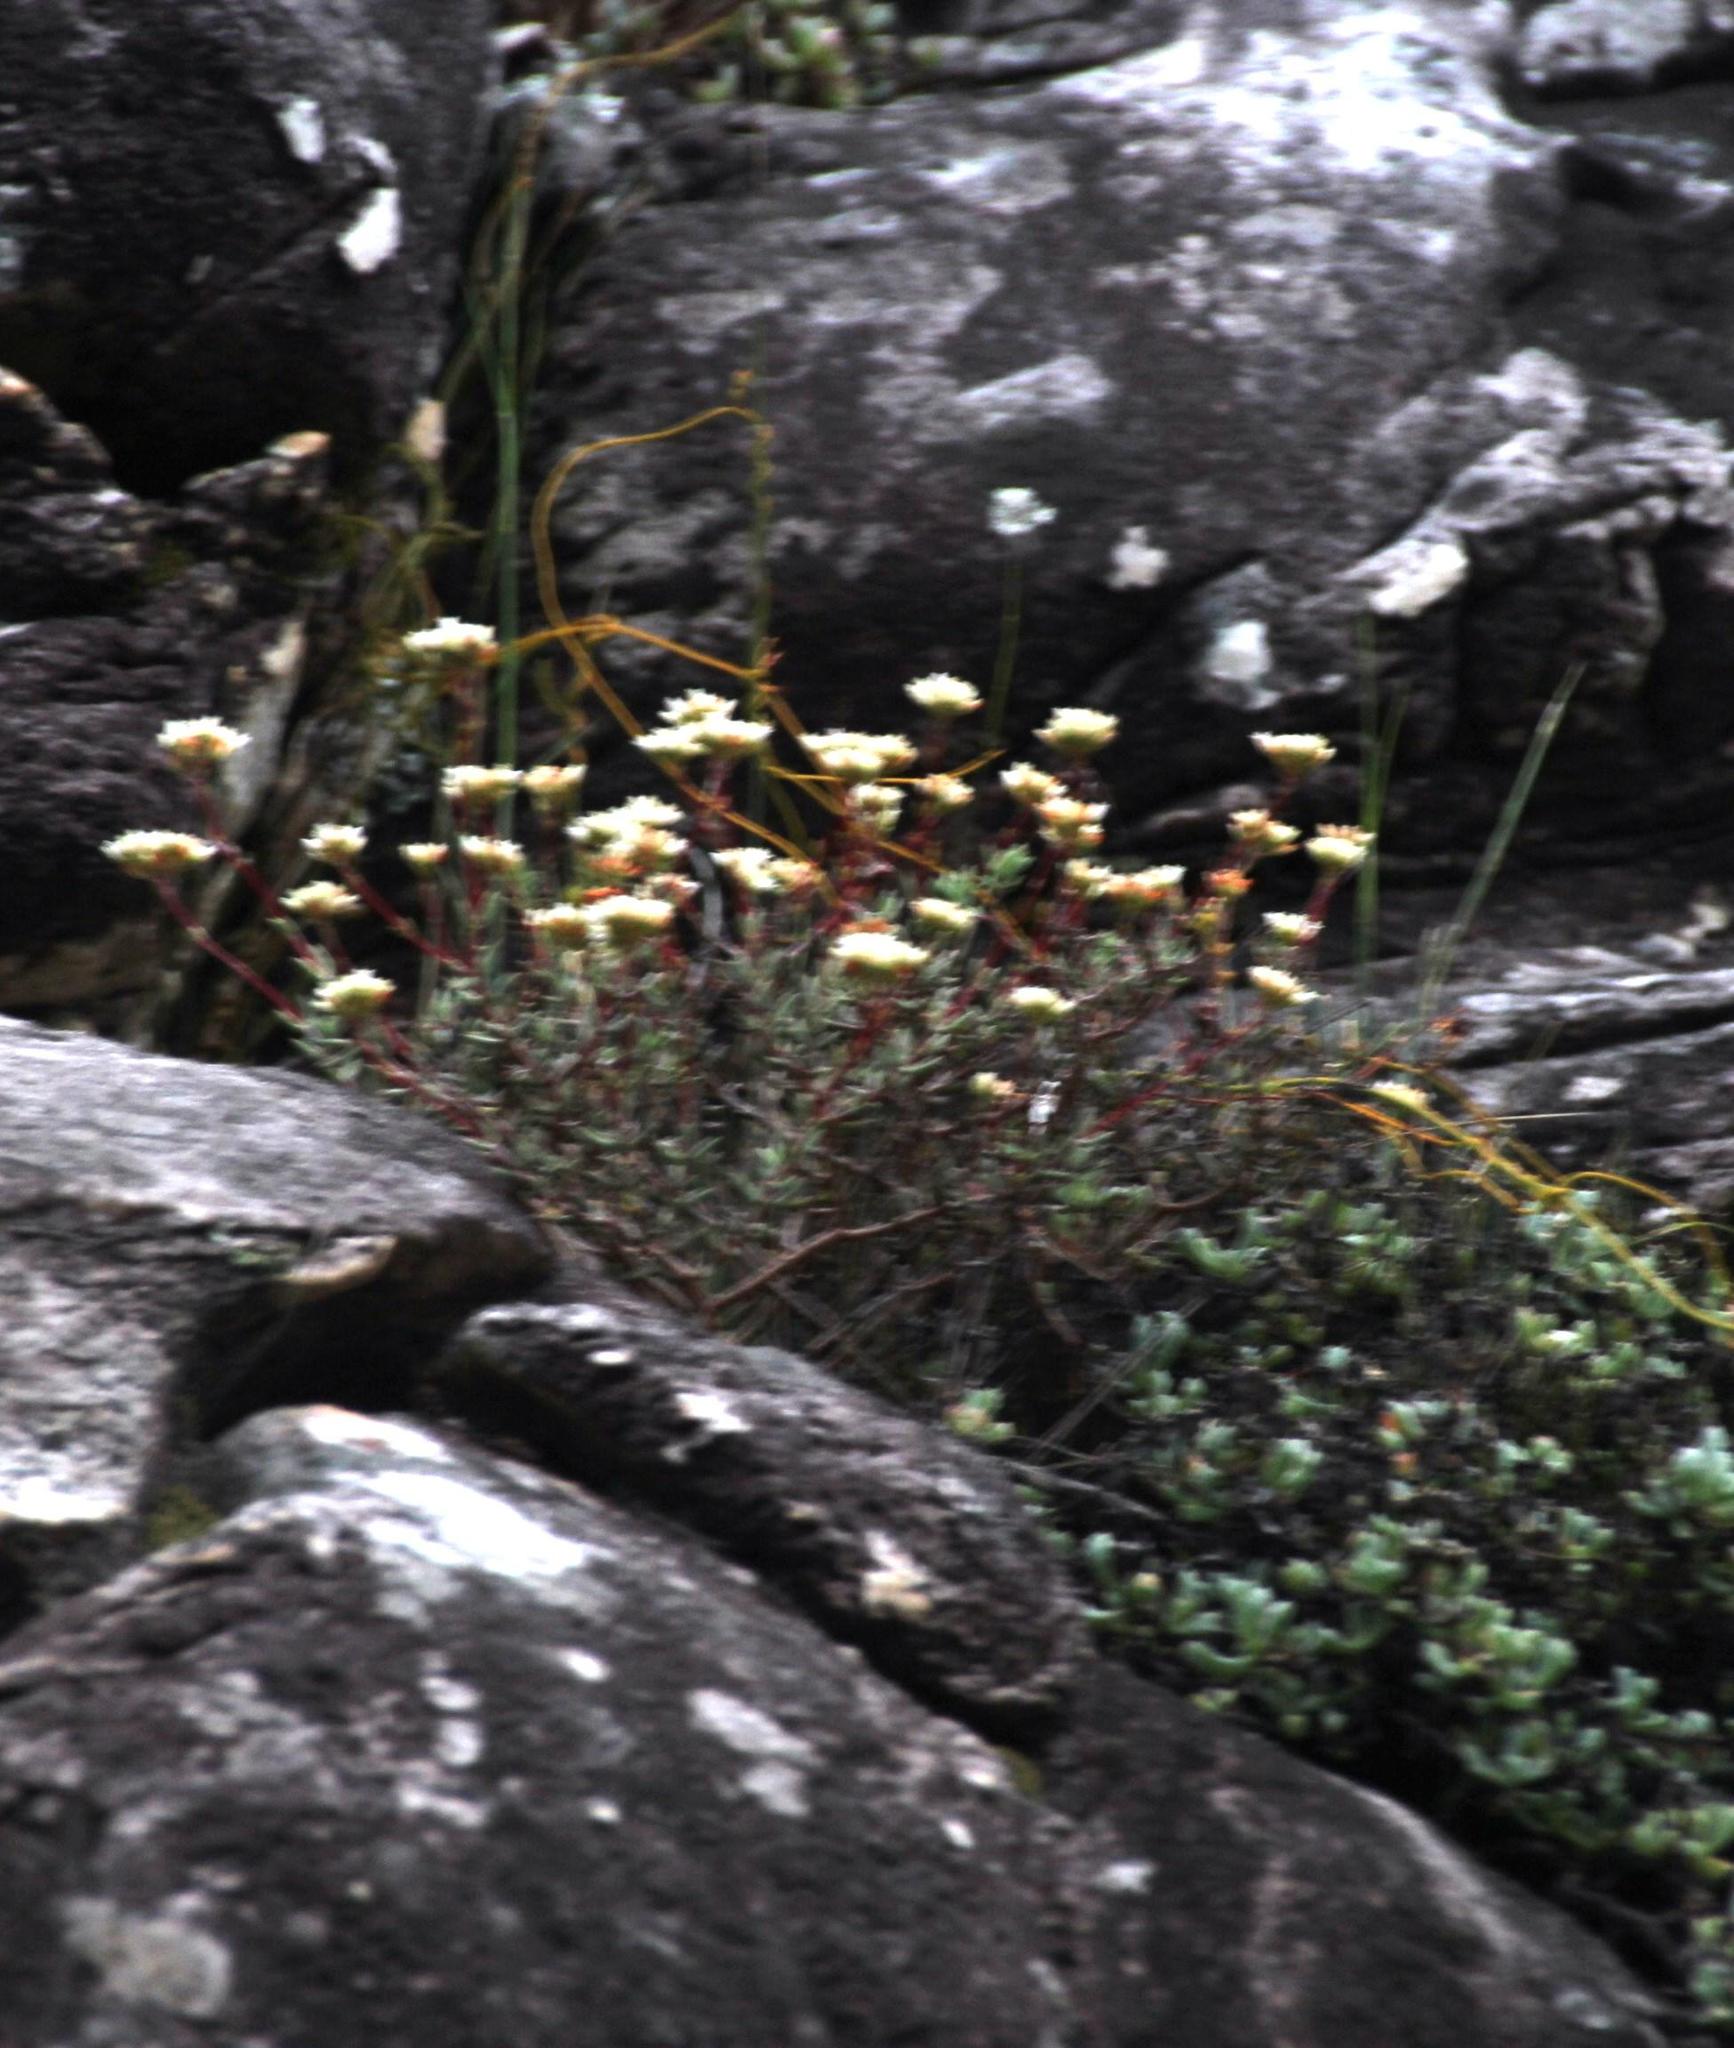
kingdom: Plantae
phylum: Tracheophyta
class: Magnoliopsida
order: Saxifragales
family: Crassulaceae
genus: Crassula
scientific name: Crassula biplanata
